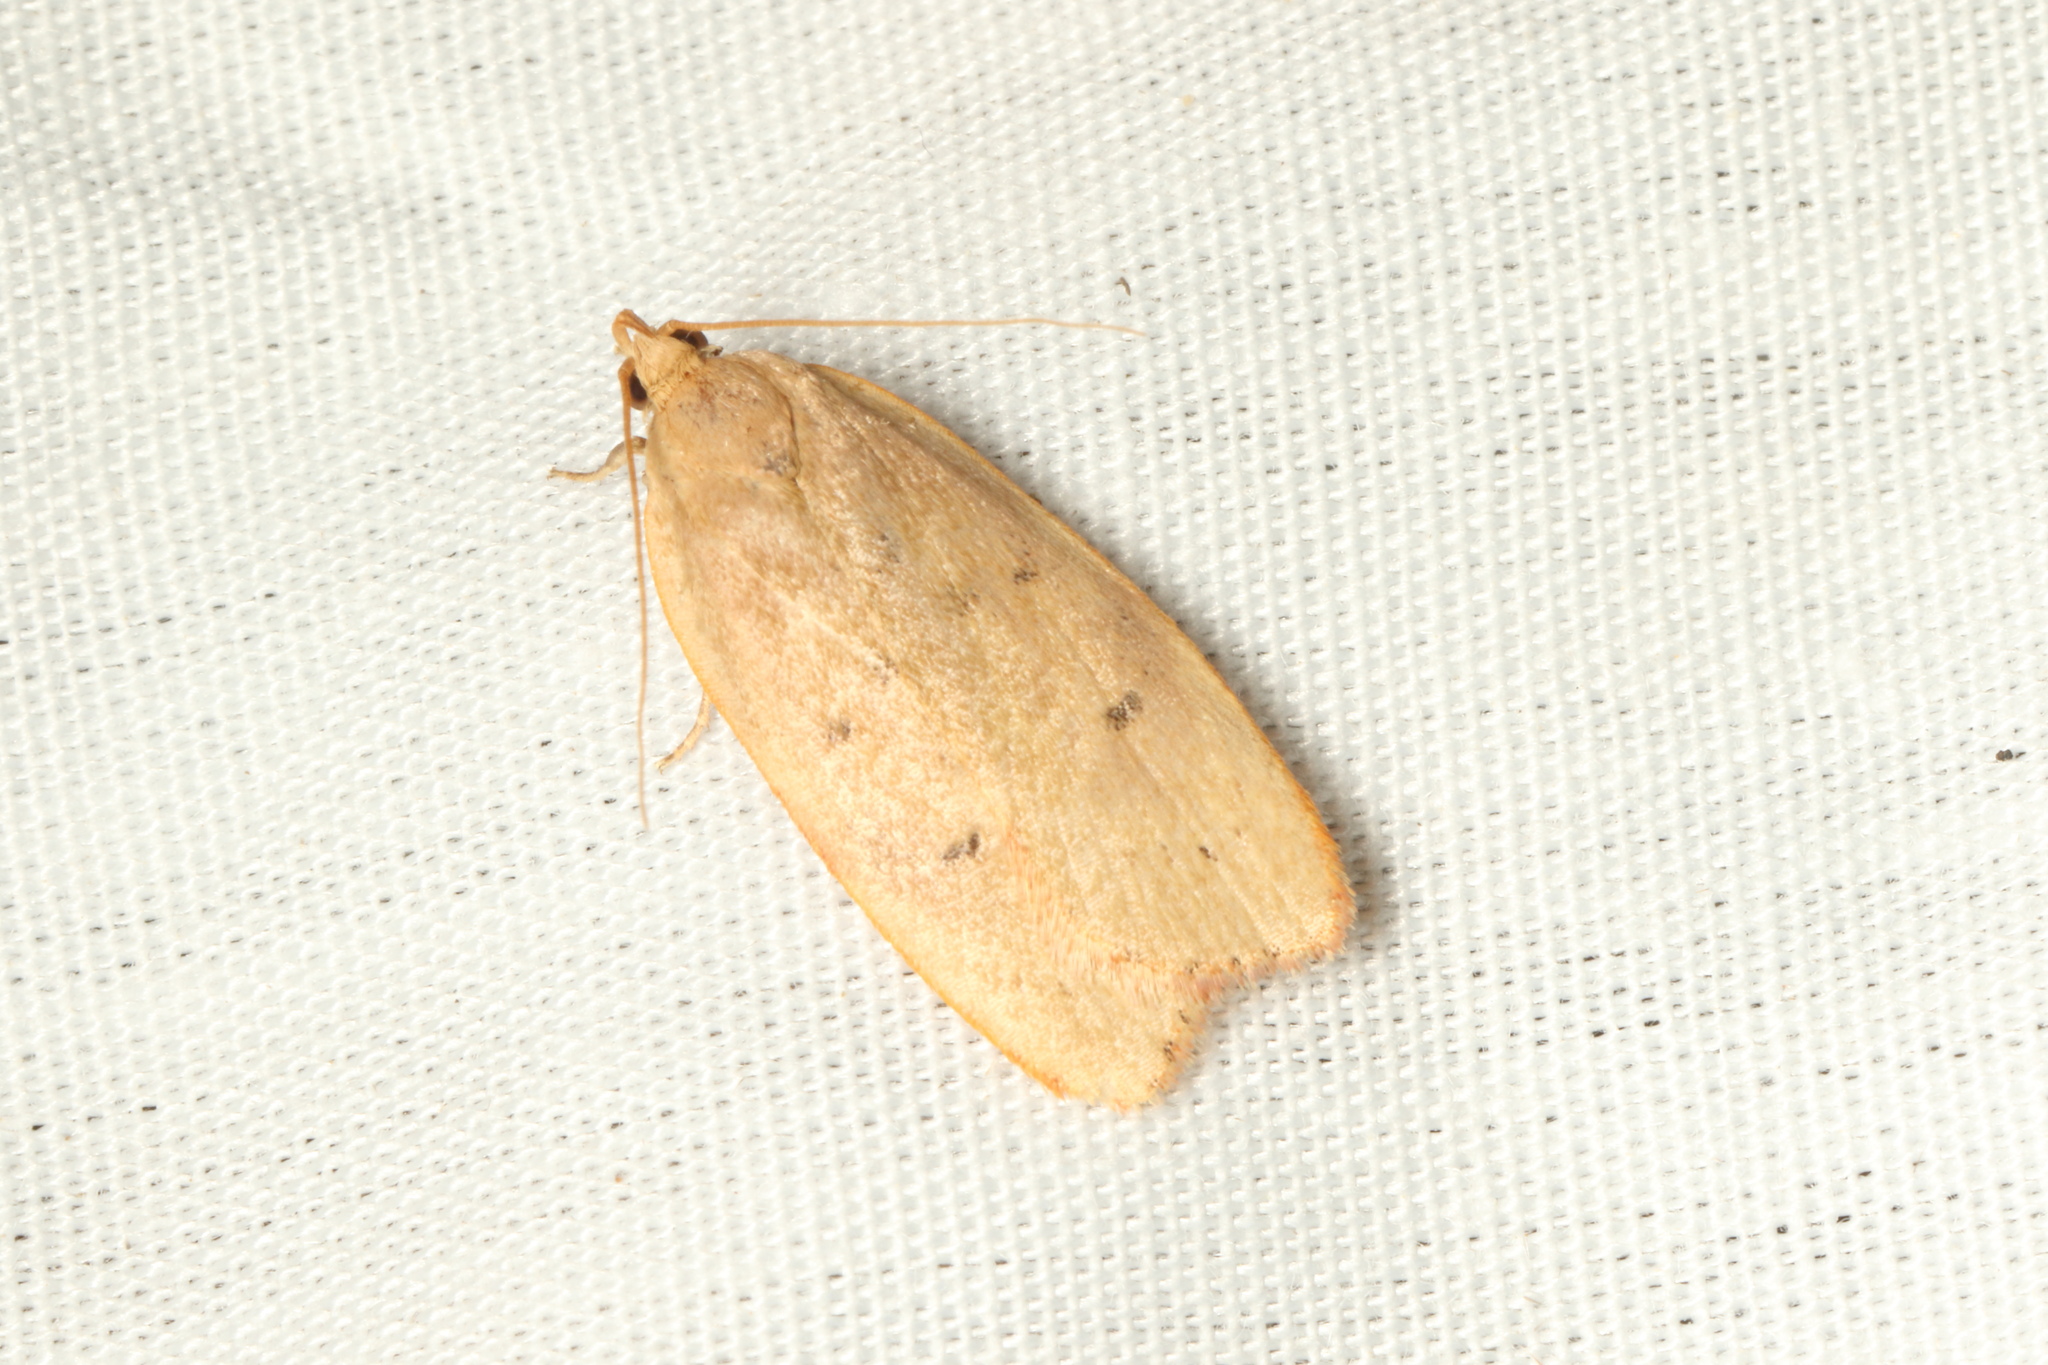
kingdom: Animalia
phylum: Arthropoda
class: Insecta
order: Lepidoptera
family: Depressariidae
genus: Phaeosaces
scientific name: Phaeosaces coarctatella
